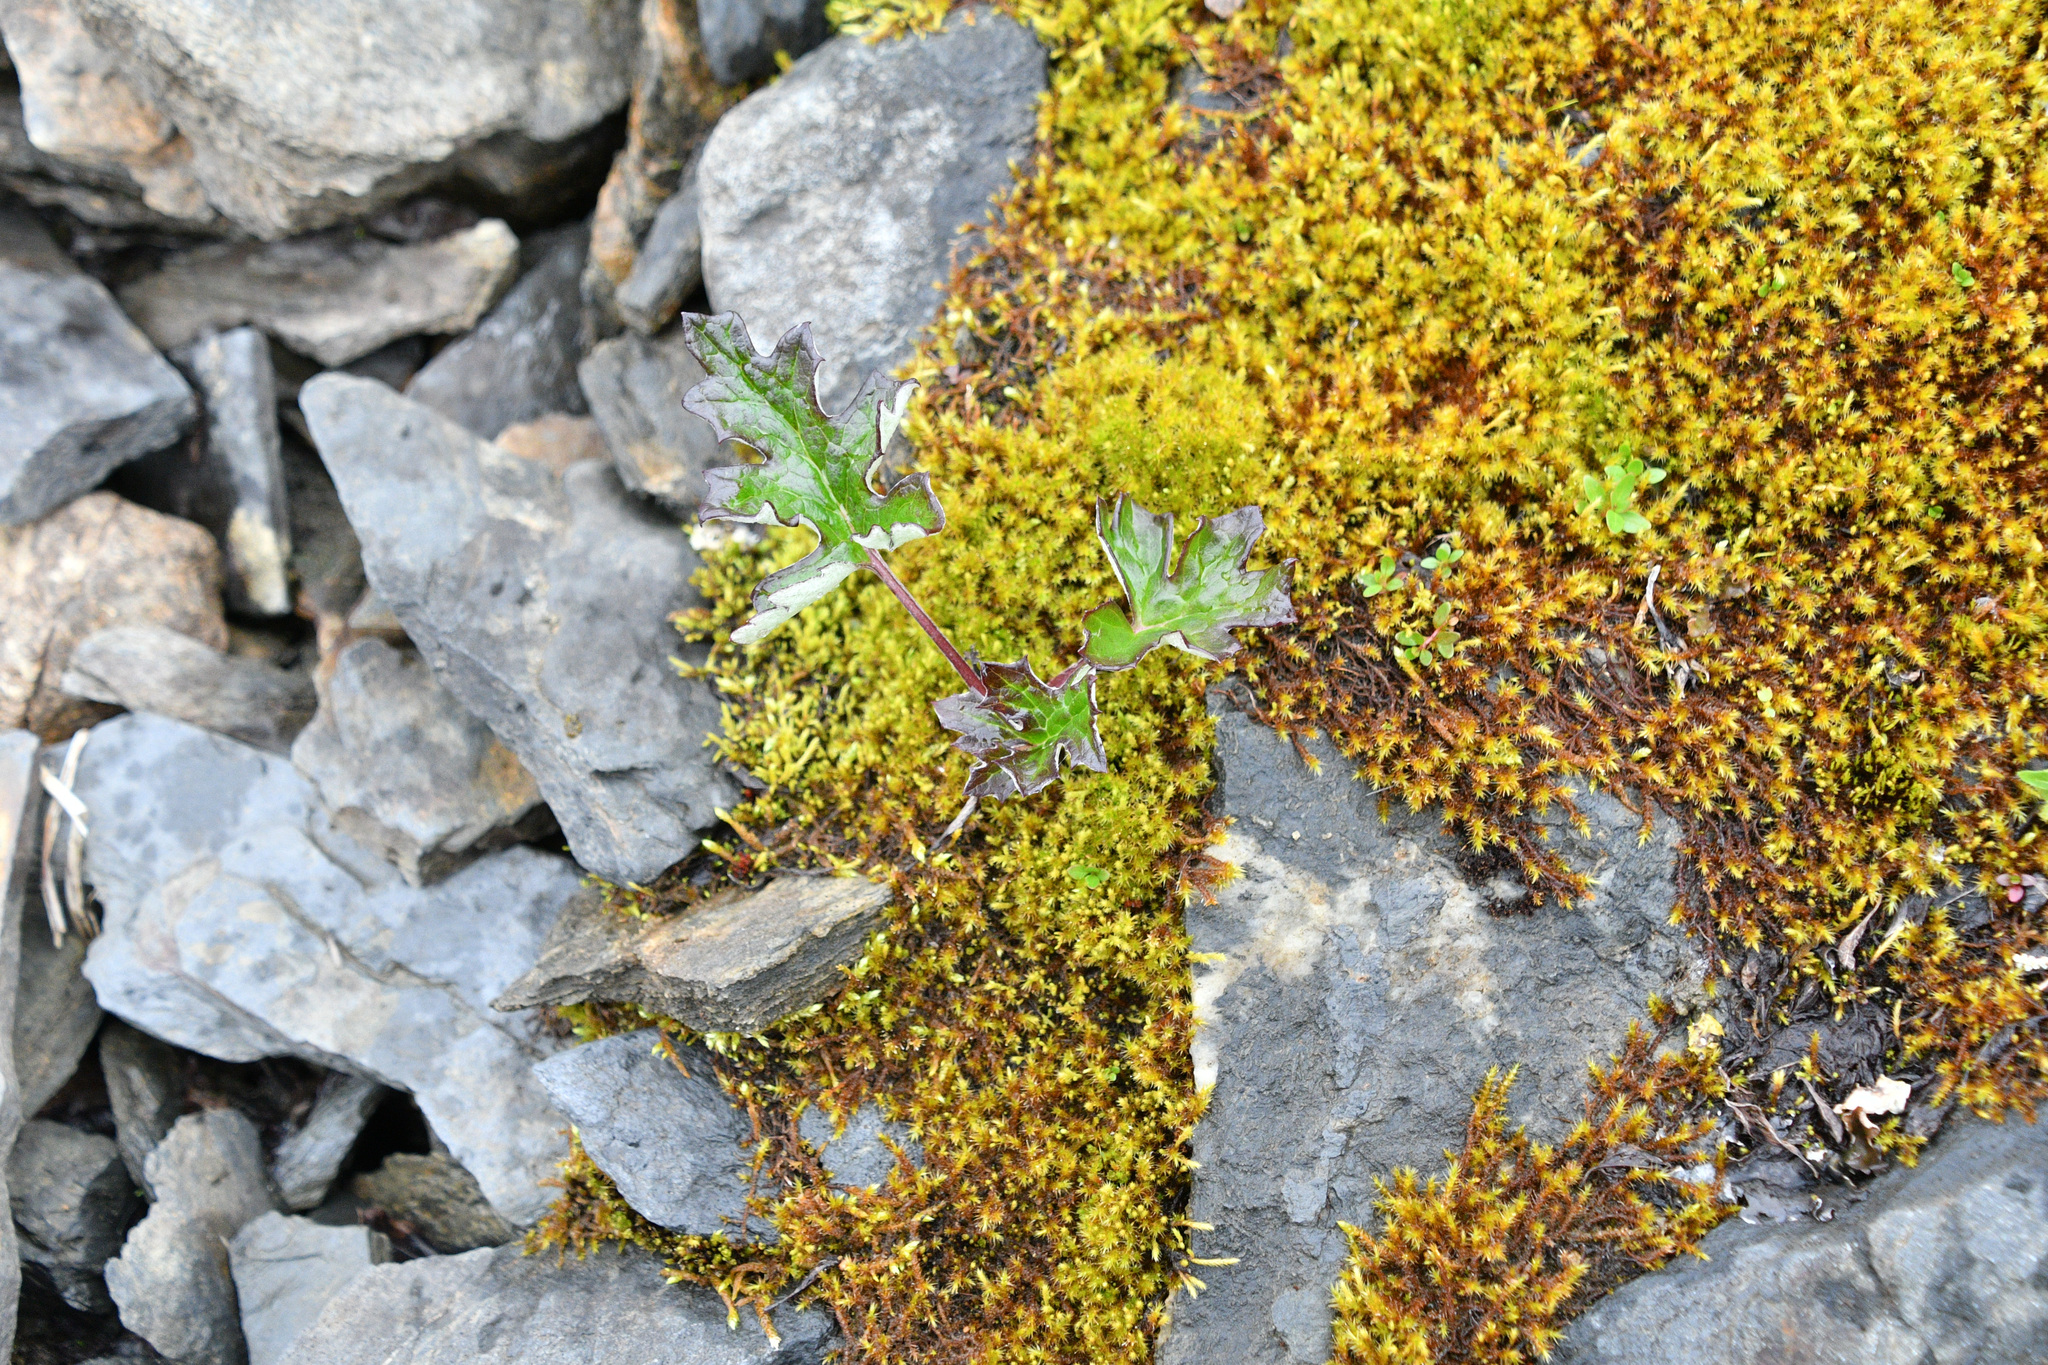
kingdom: Plantae
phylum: Tracheophyta
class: Magnoliopsida
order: Asterales
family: Asteraceae
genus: Petasites
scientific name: Petasites frigidus
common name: Arctic butterbur
